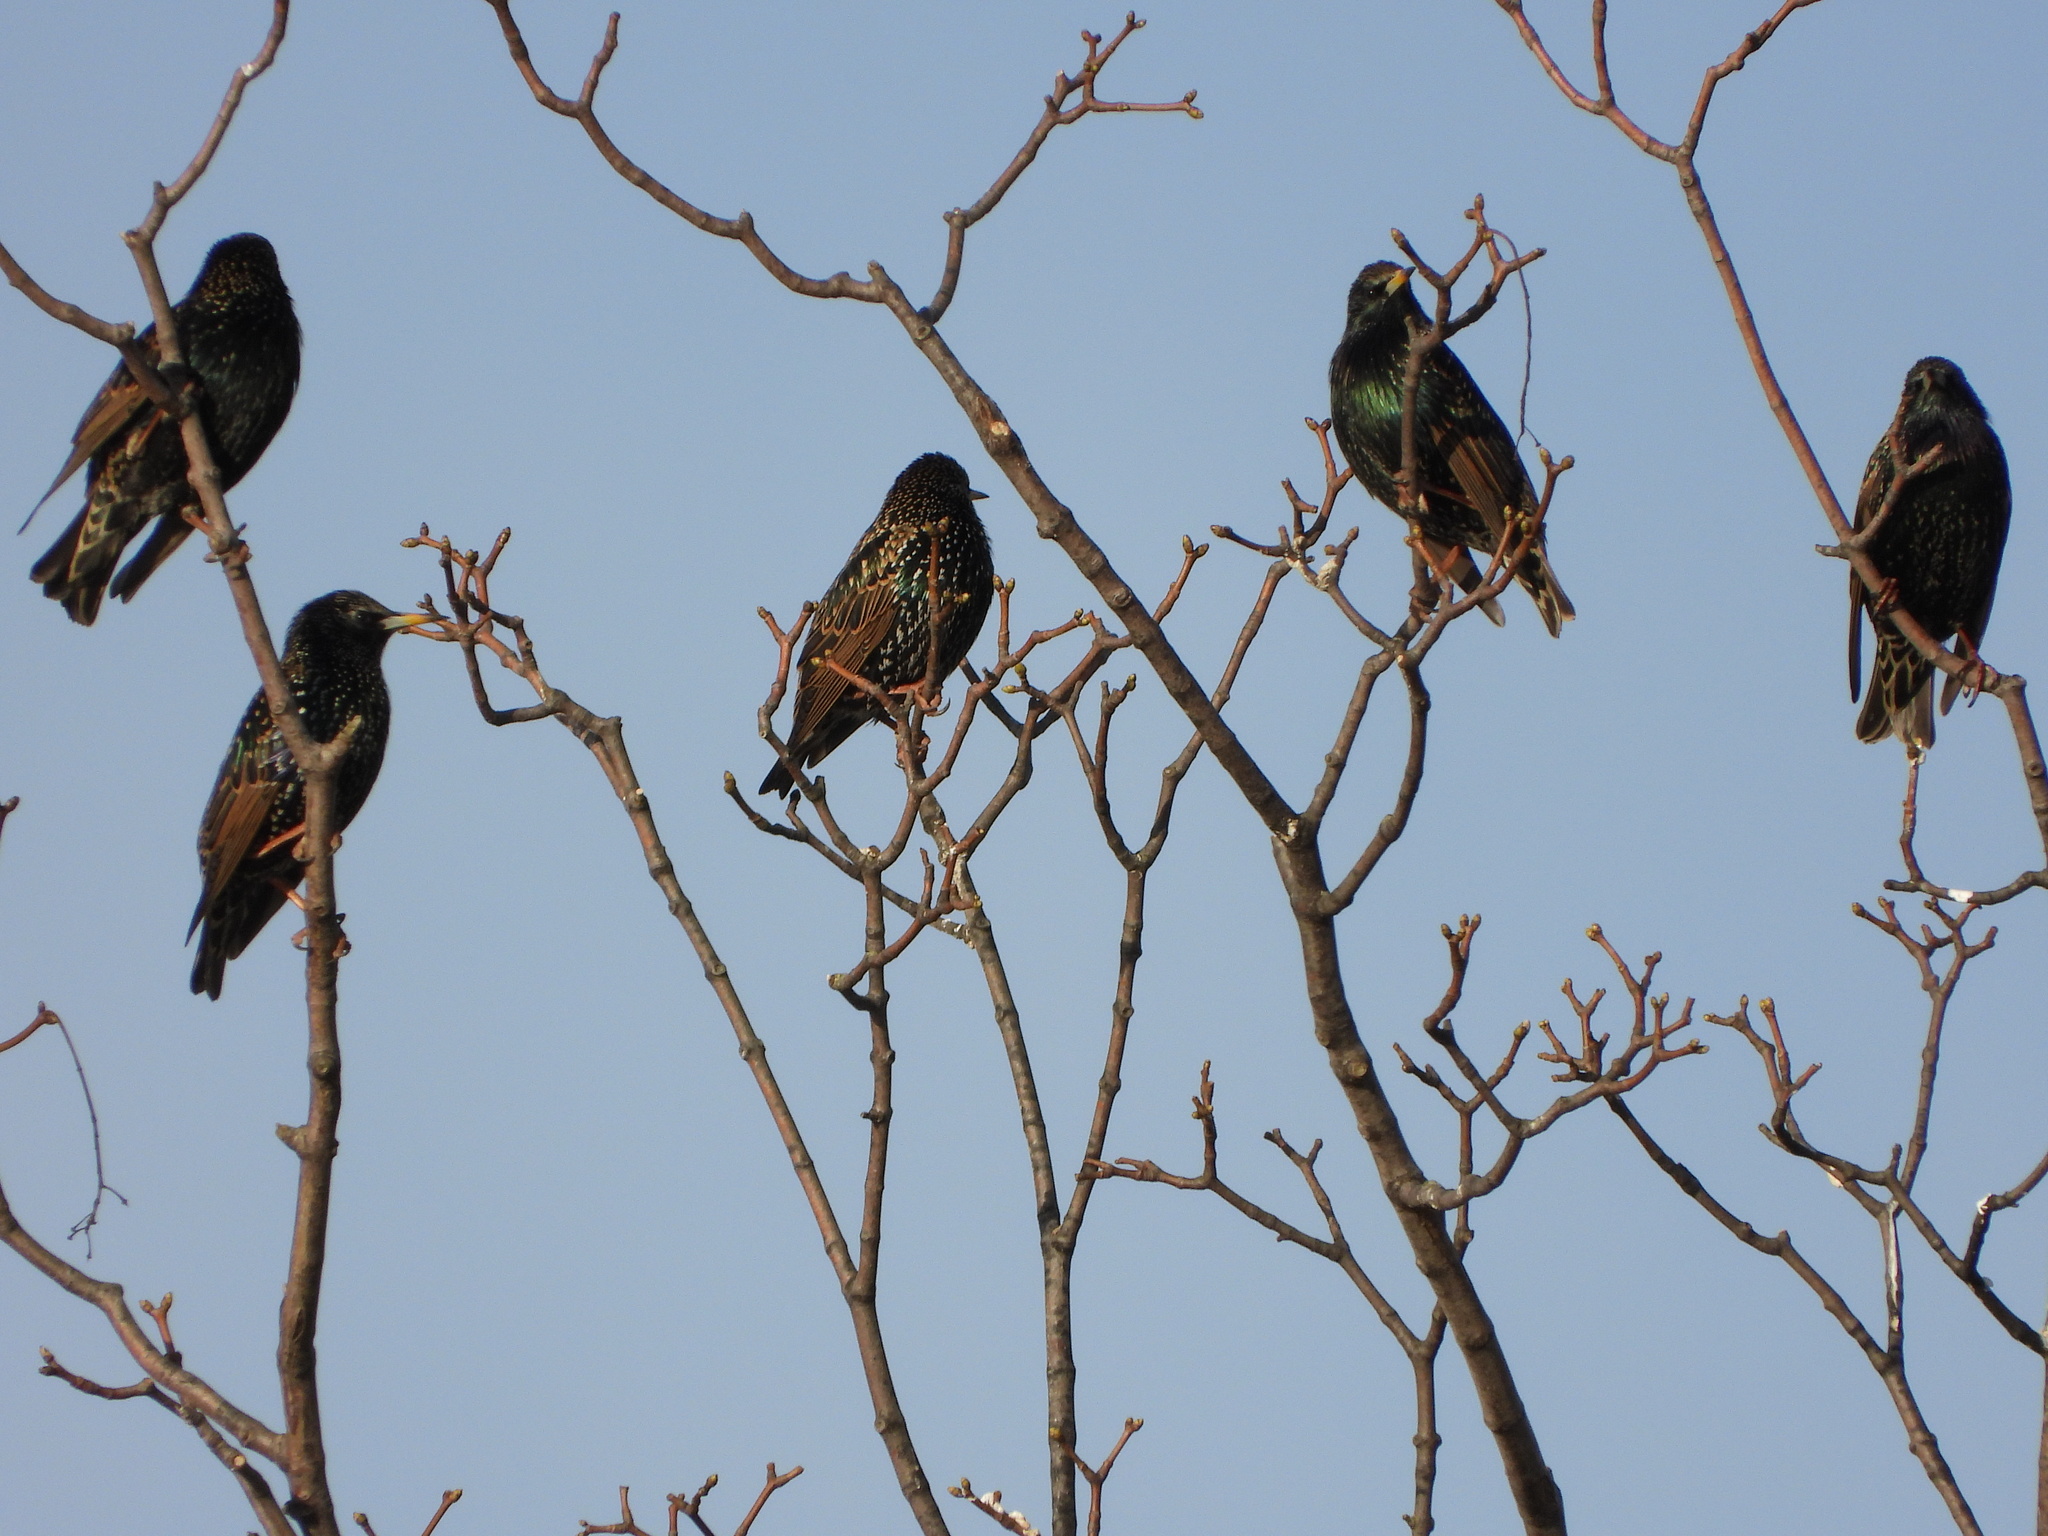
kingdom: Animalia
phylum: Chordata
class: Aves
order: Passeriformes
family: Sturnidae
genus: Sturnus
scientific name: Sturnus vulgaris
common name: Common starling
